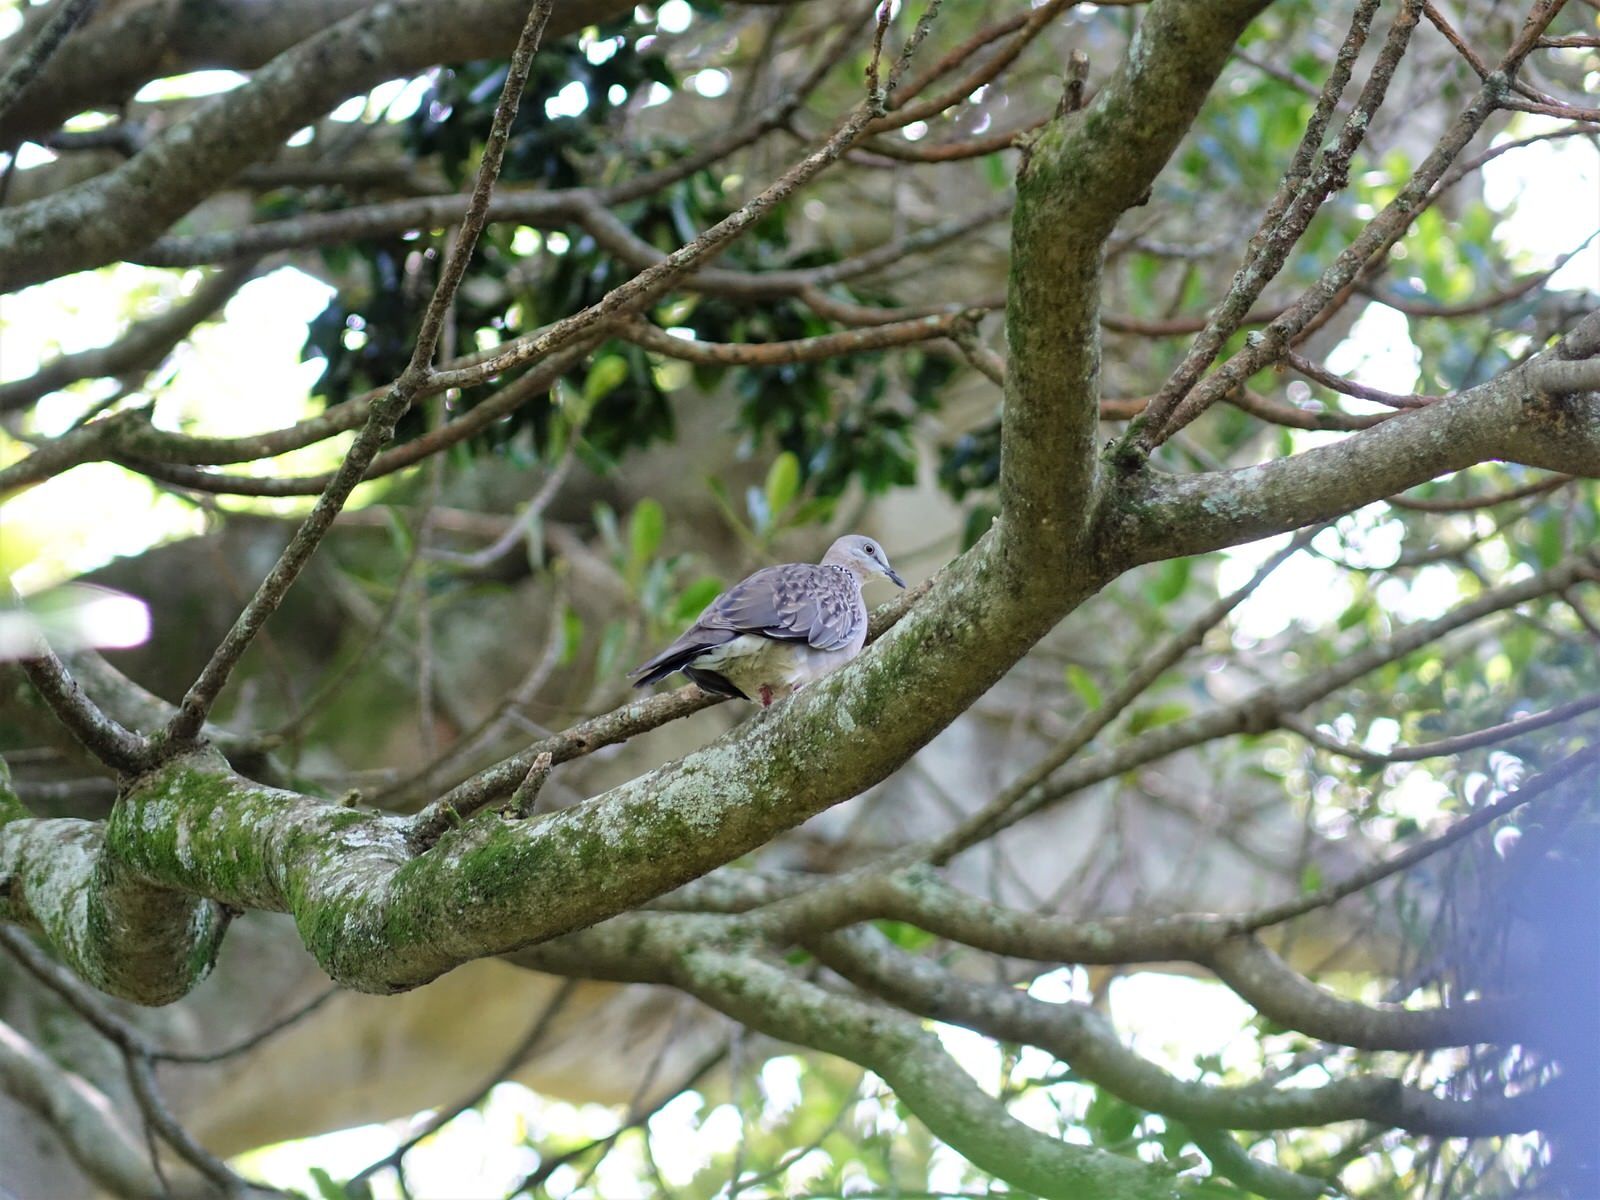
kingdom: Animalia
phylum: Chordata
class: Aves
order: Columbiformes
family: Columbidae
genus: Spilopelia
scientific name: Spilopelia chinensis
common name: Spotted dove
